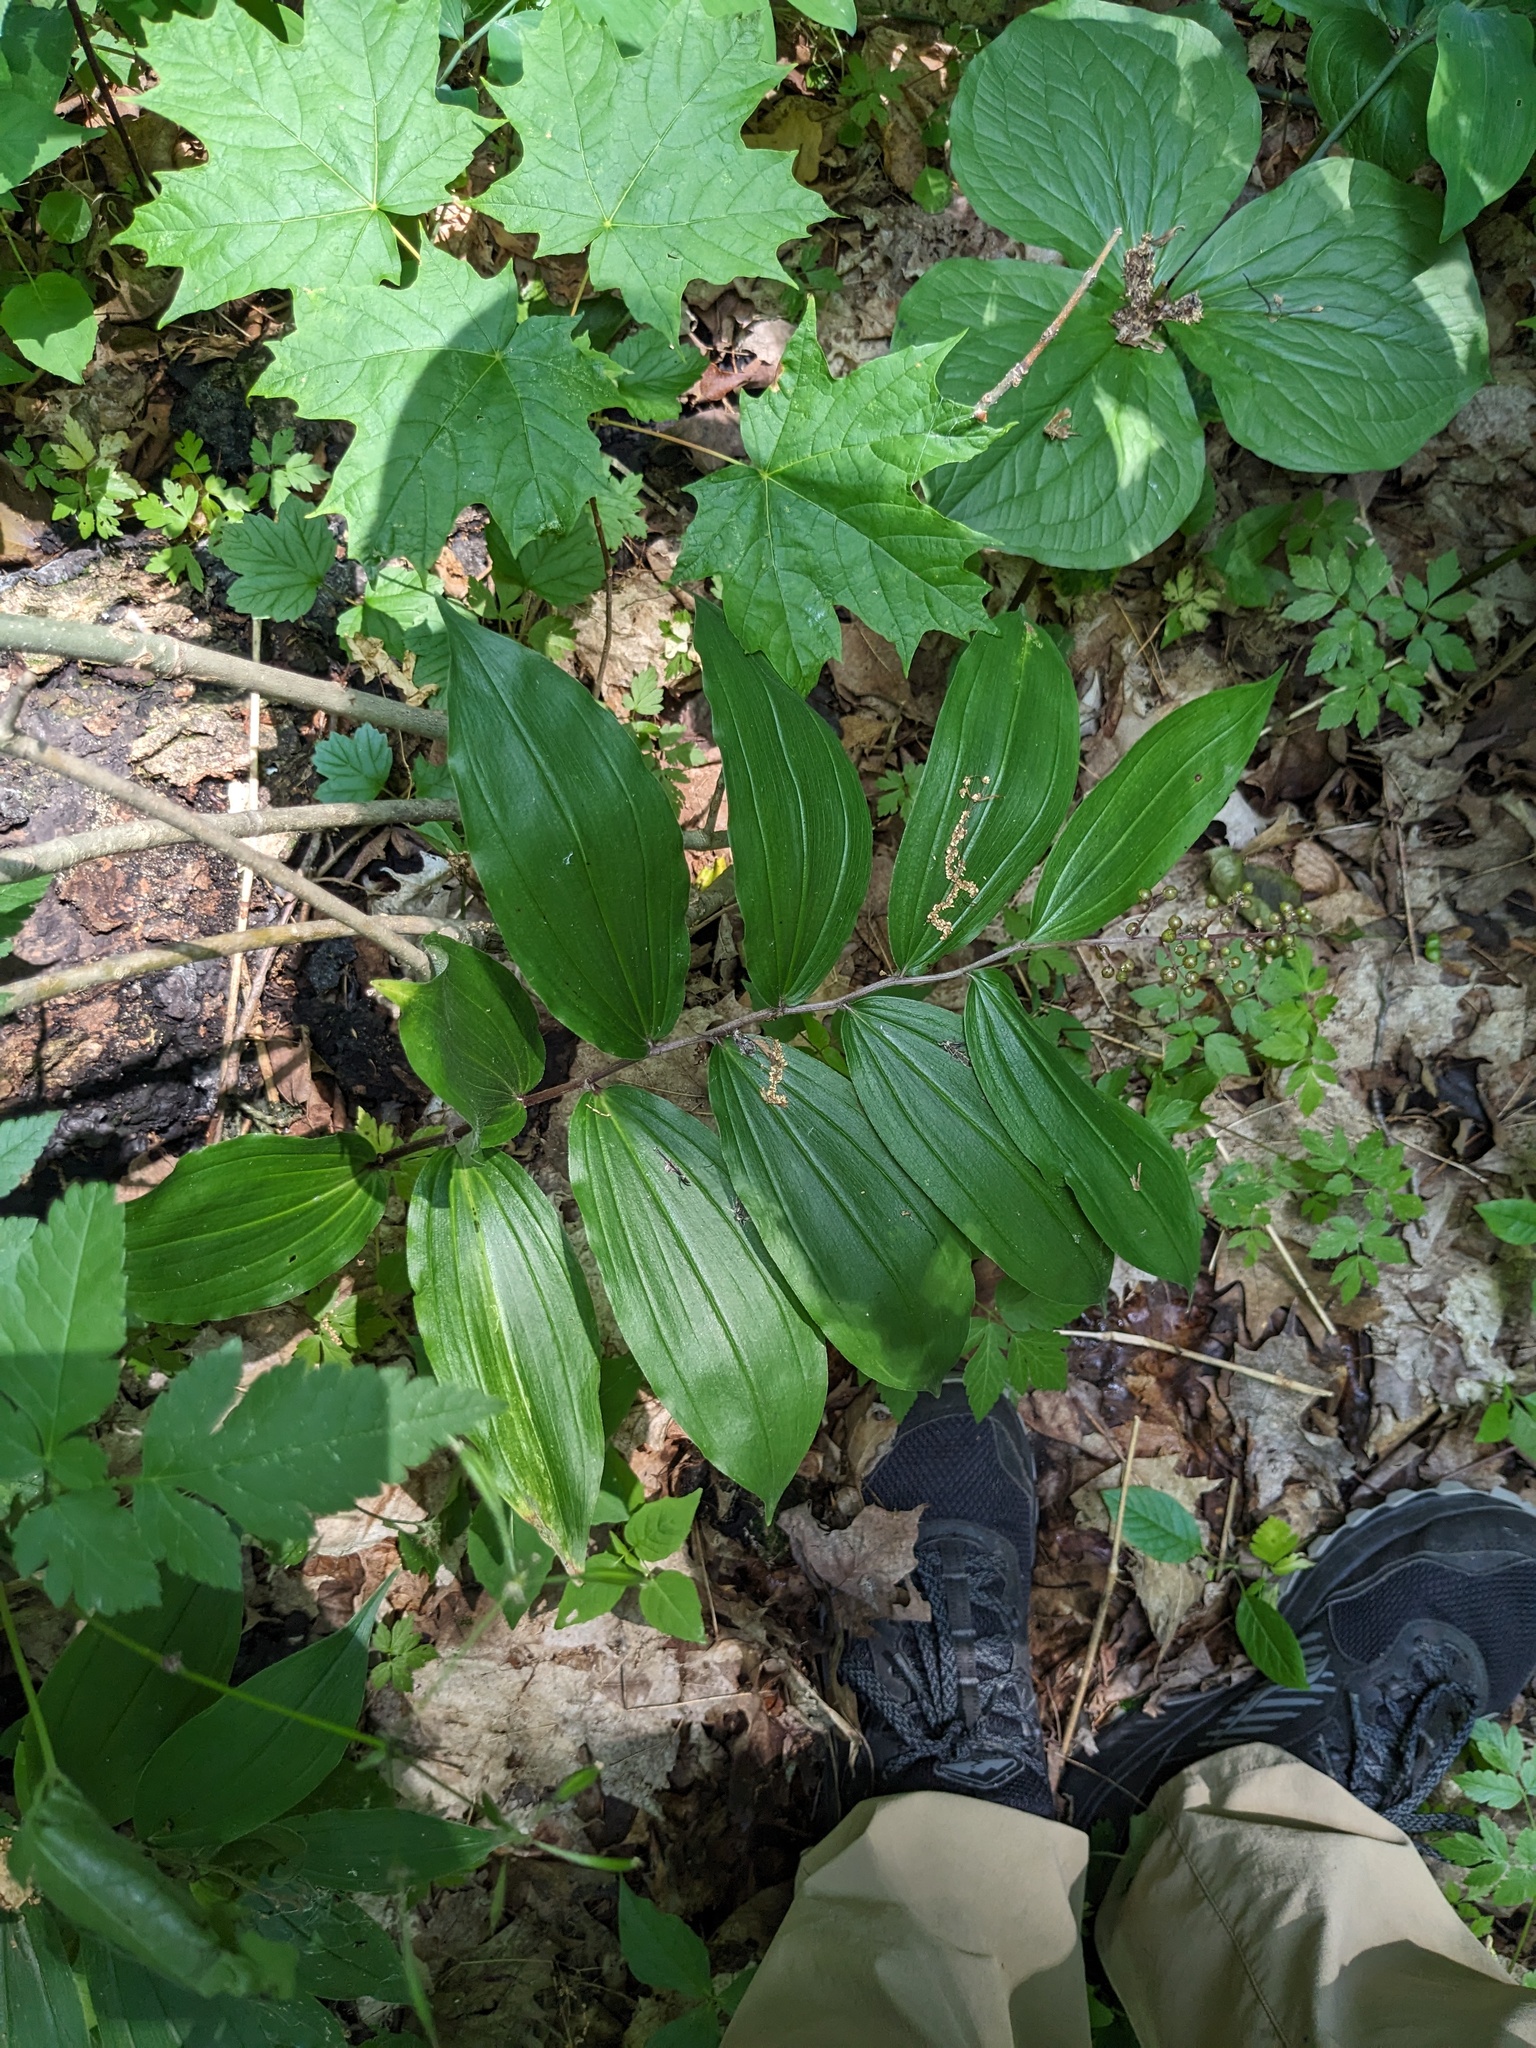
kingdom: Plantae
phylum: Tracheophyta
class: Liliopsida
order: Asparagales
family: Asparagaceae
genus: Maianthemum
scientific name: Maianthemum racemosum
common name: False spikenard
